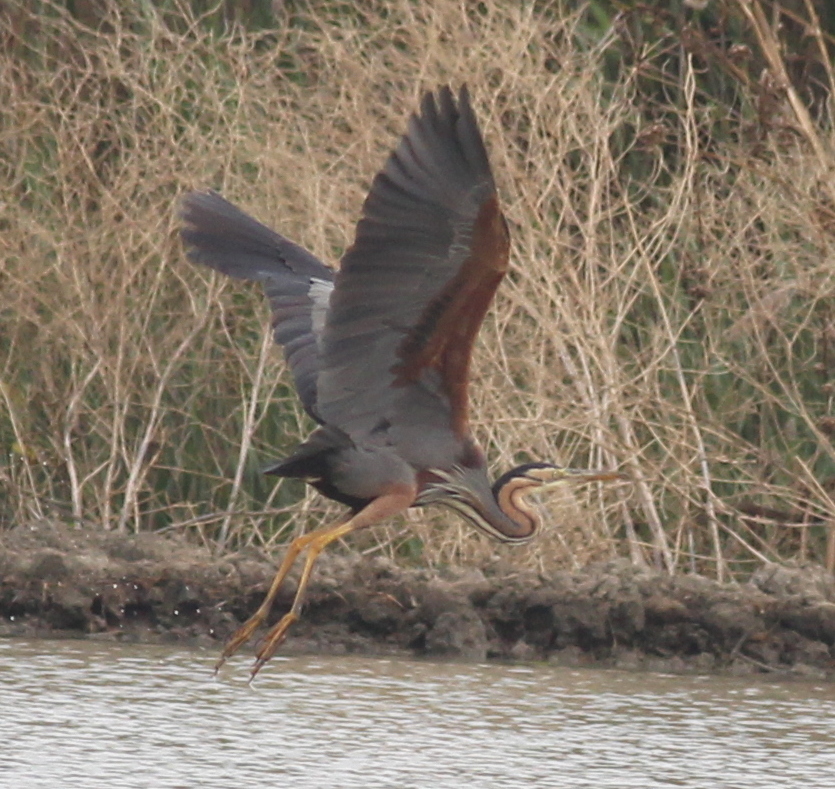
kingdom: Animalia
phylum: Chordata
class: Aves
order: Pelecaniformes
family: Ardeidae
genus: Ardea
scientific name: Ardea purpurea
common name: Purple heron
